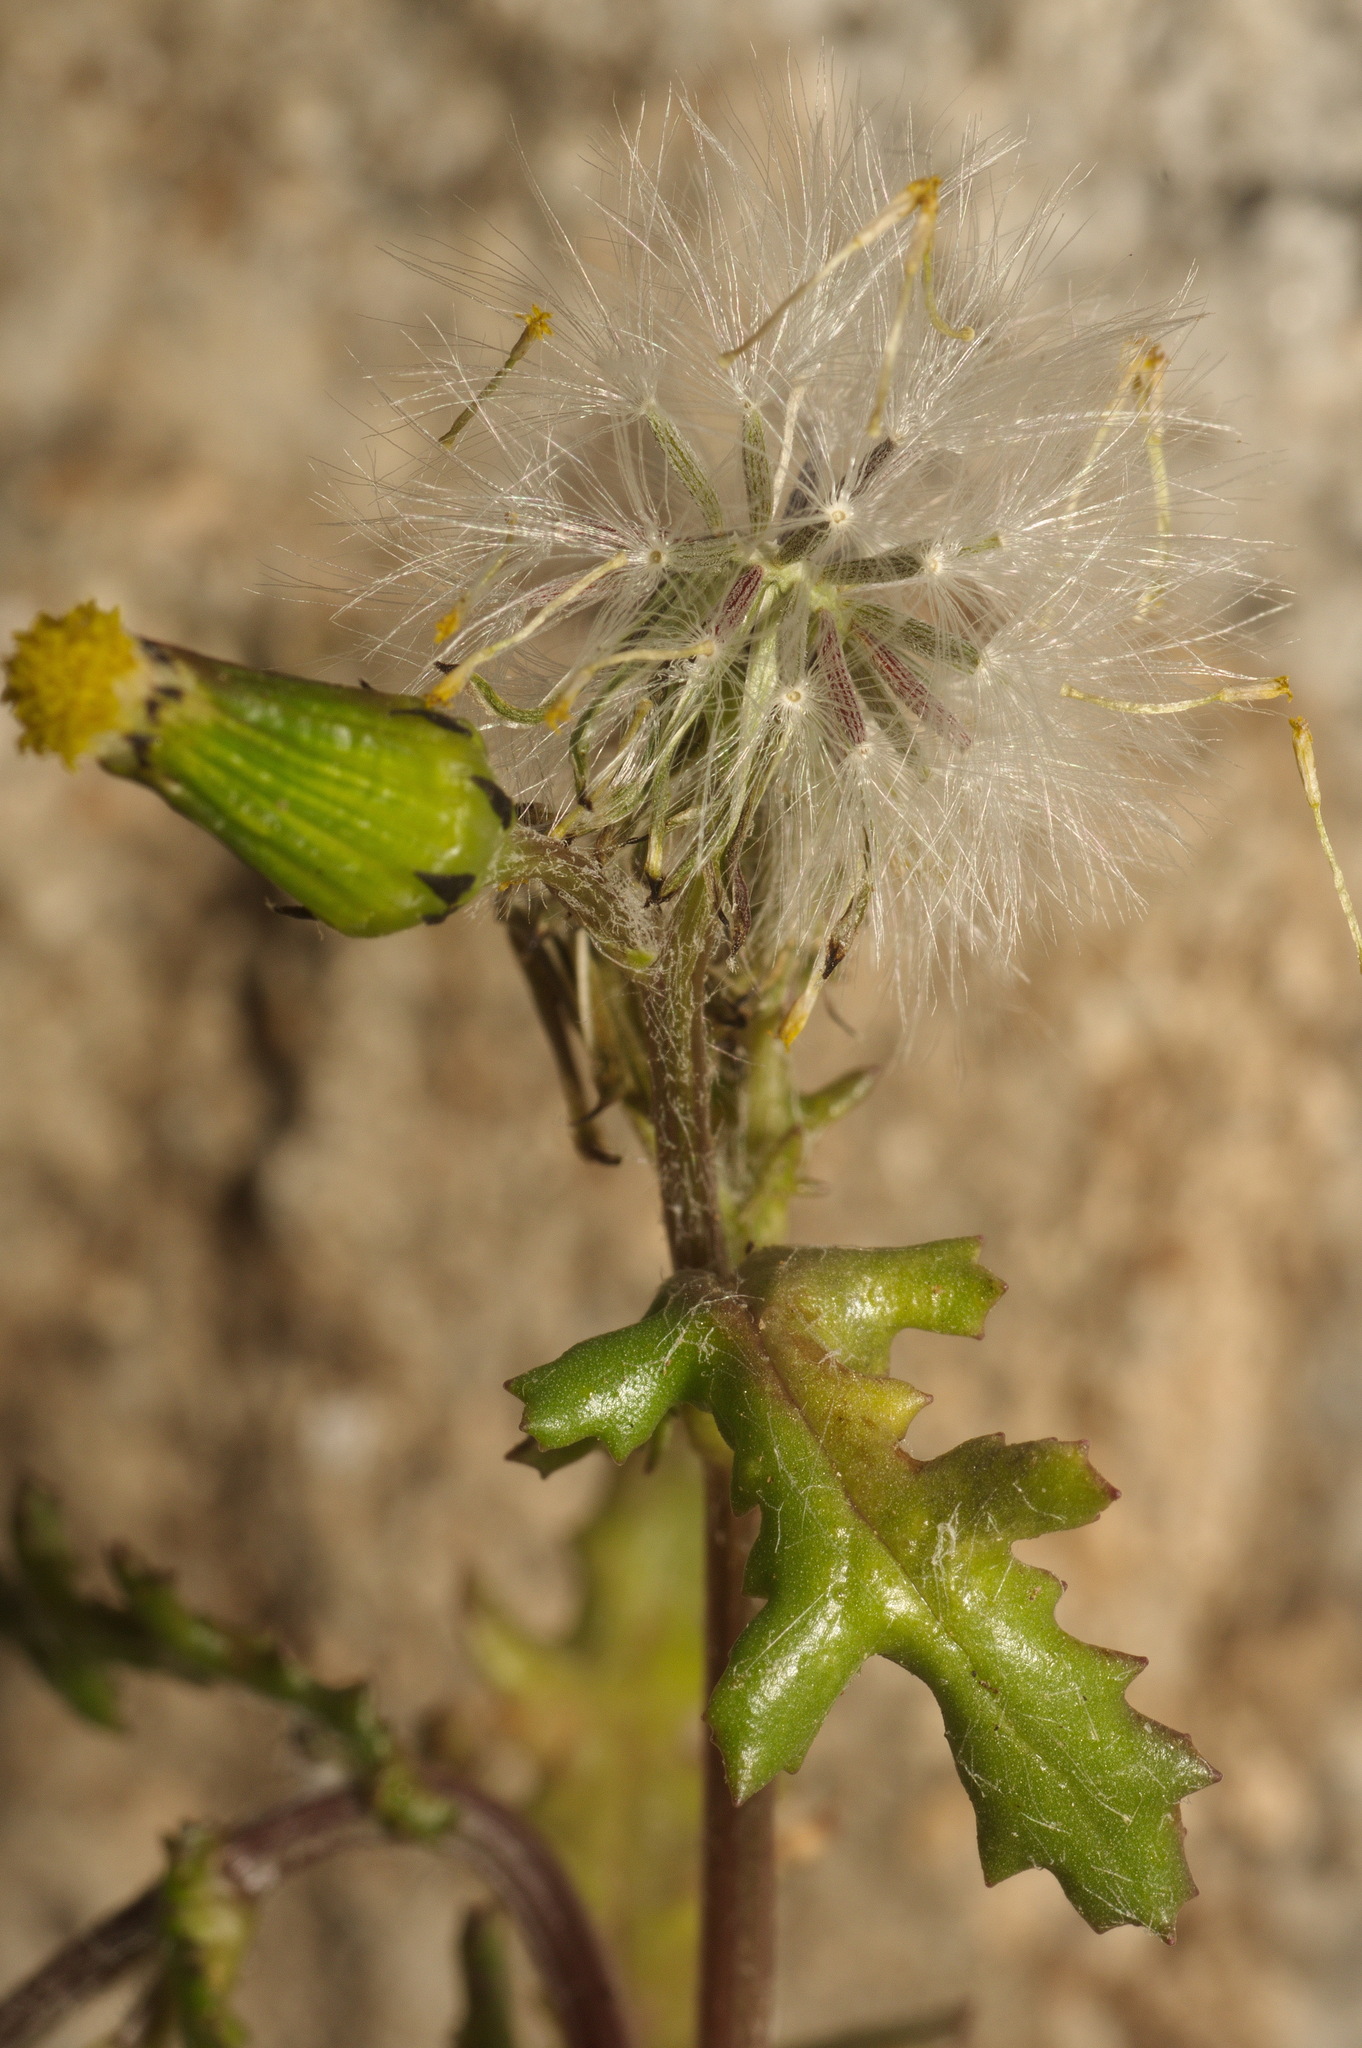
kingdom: Plantae
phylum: Tracheophyta
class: Magnoliopsida
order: Asterales
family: Asteraceae
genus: Senecio
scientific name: Senecio vulgaris
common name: Old-man-in-the-spring
